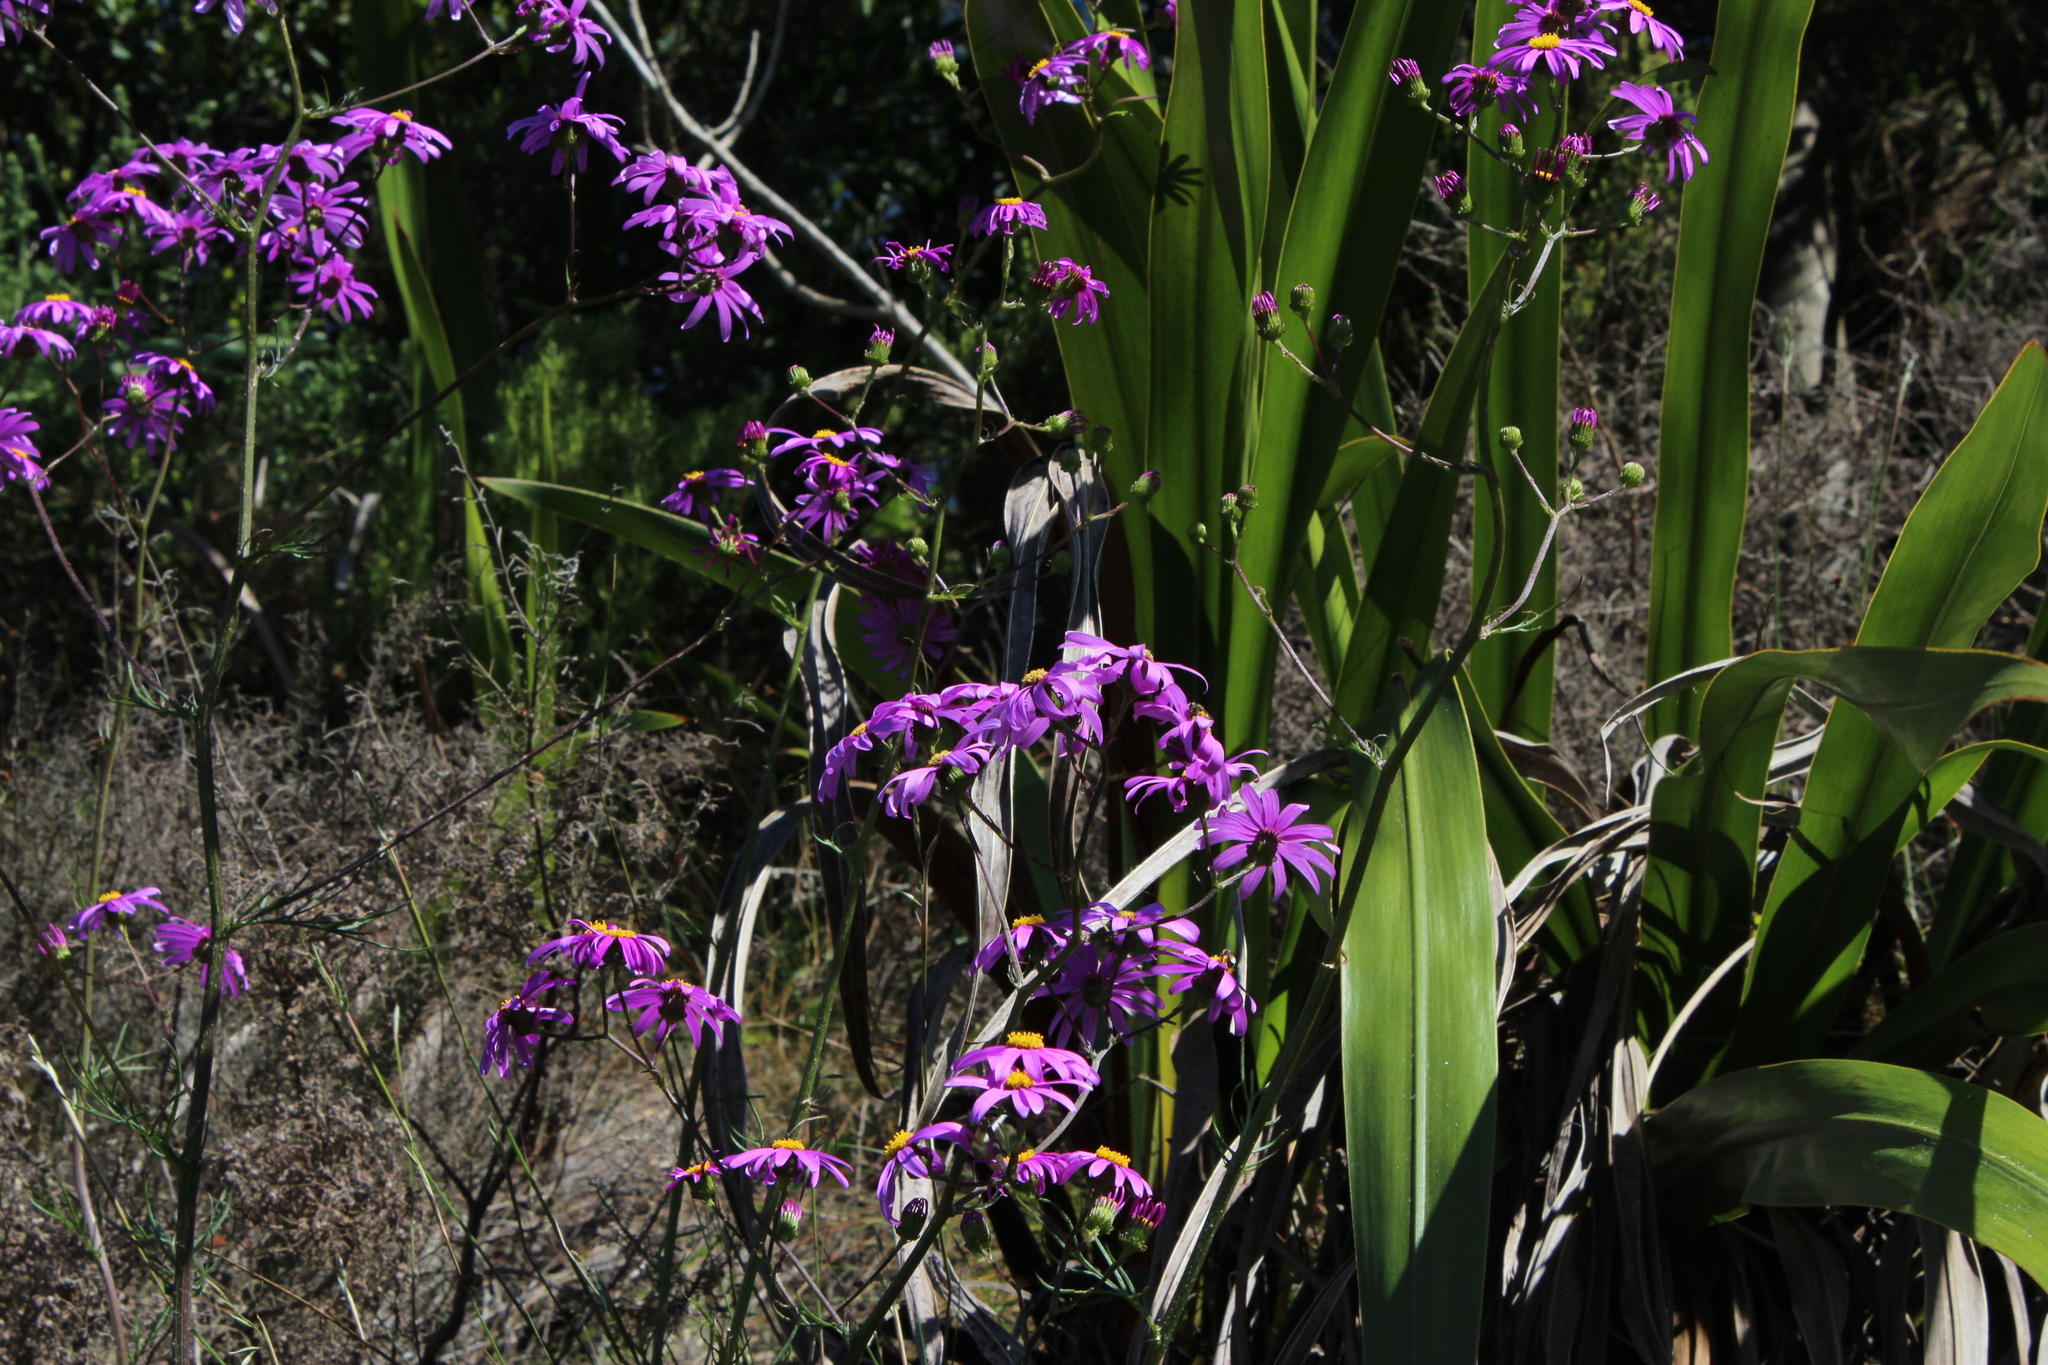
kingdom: Plantae
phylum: Tracheophyta
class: Magnoliopsida
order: Asterales
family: Asteraceae
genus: Senecio
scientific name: Senecio umbellatus
